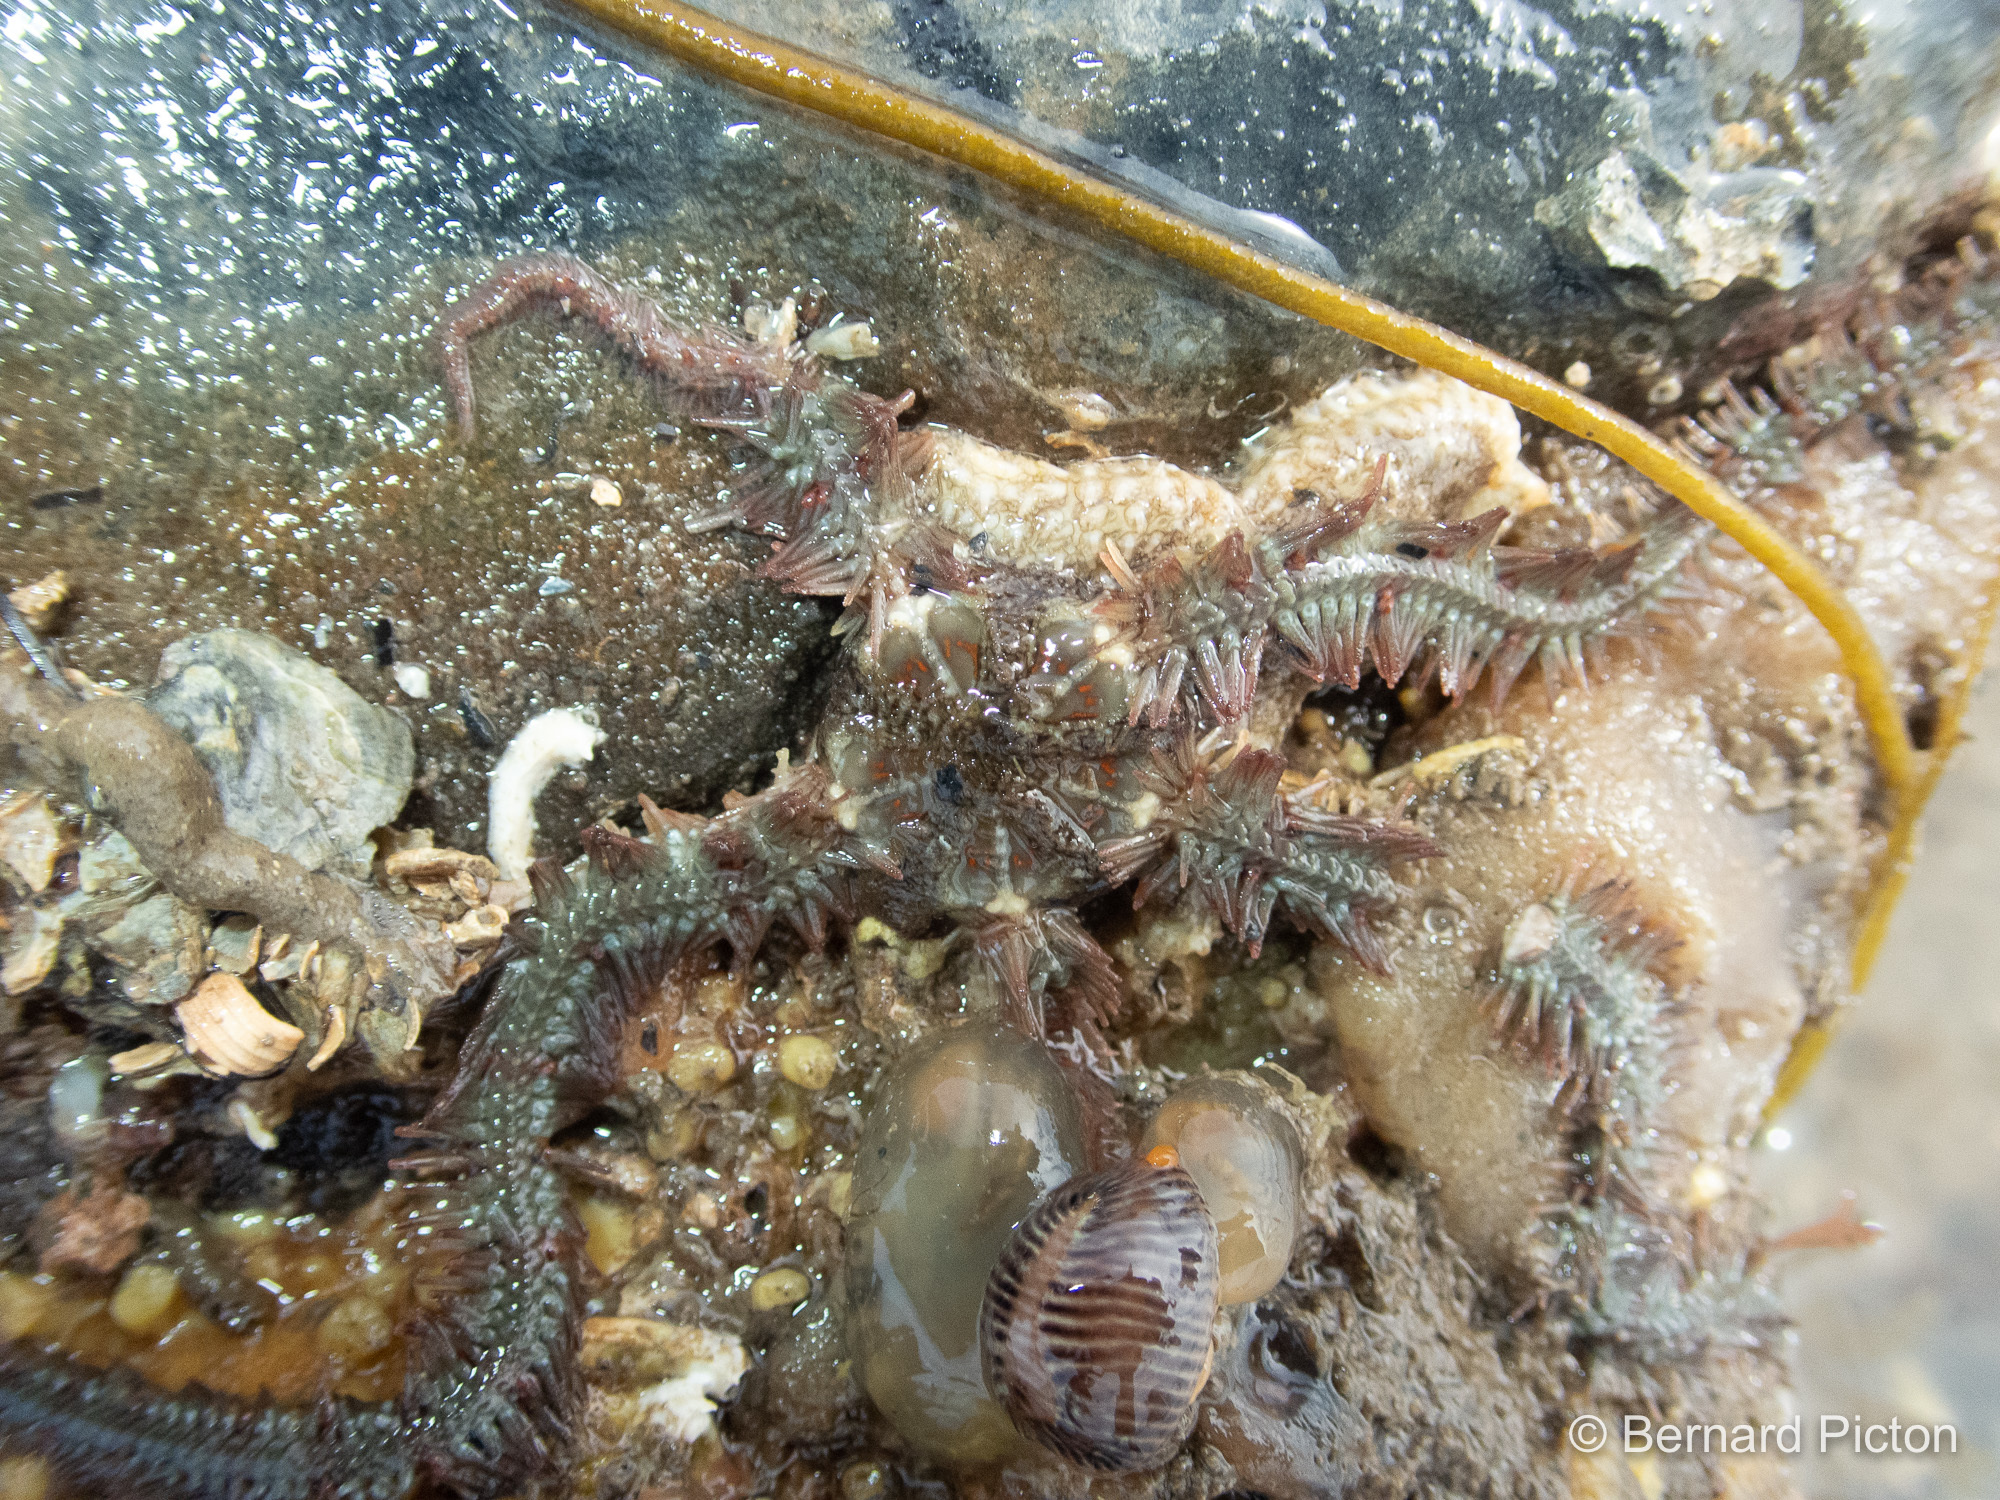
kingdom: Animalia
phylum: Echinodermata
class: Ophiuroidea
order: Amphilepidida
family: Ophiotrichidae
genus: Ophiothrix
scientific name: Ophiothrix fragilis
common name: Common brittlestar
